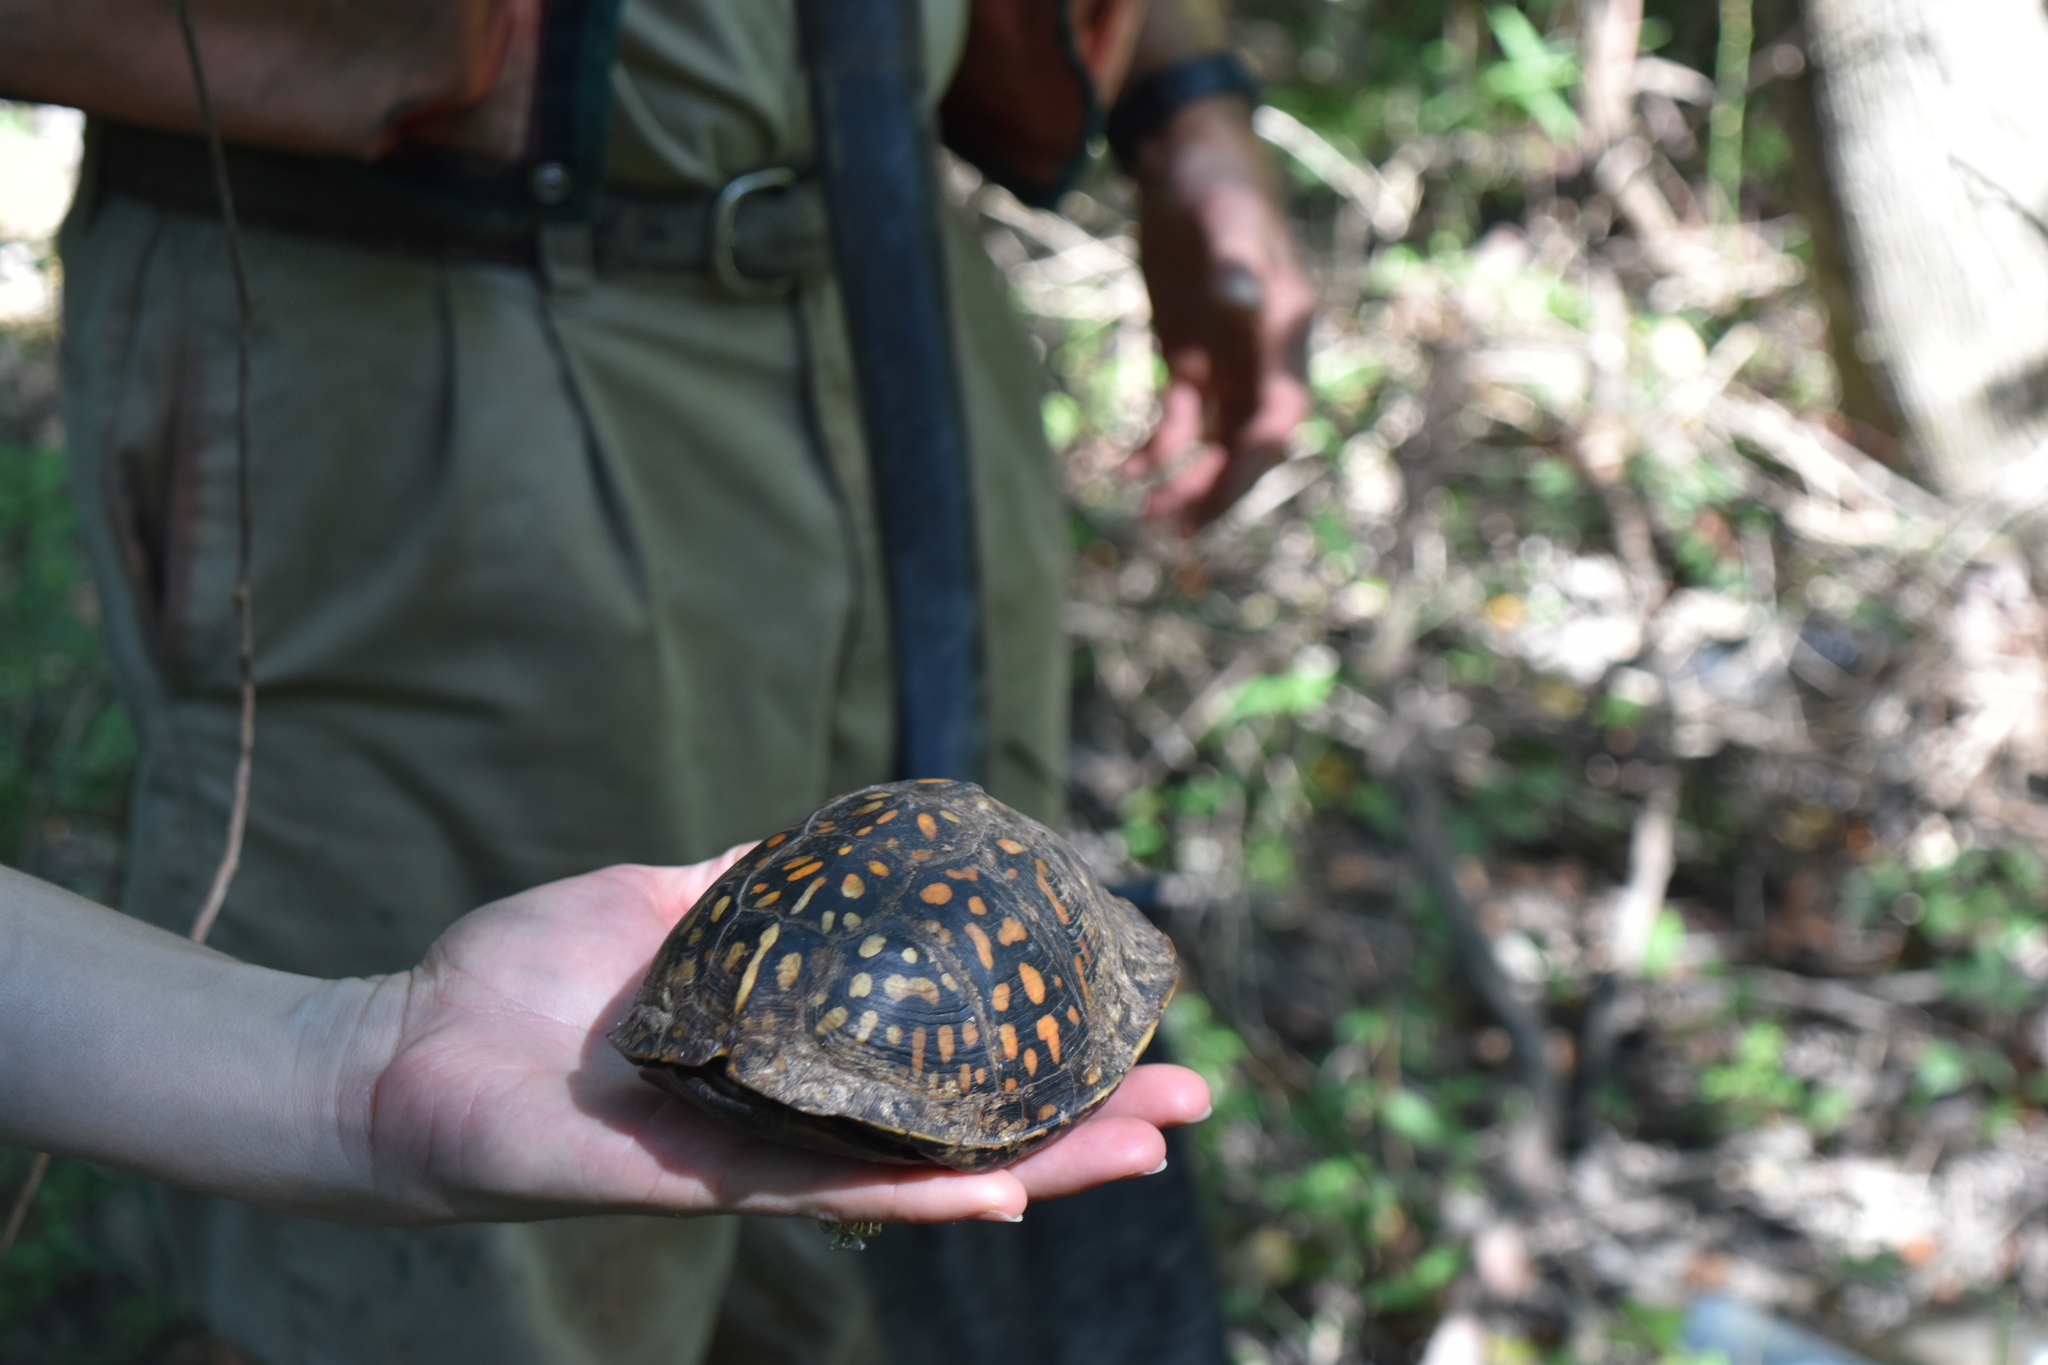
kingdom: Animalia
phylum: Chordata
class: Testudines
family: Emydidae
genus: Terrapene
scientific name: Terrapene carolina
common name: Common box turtle
